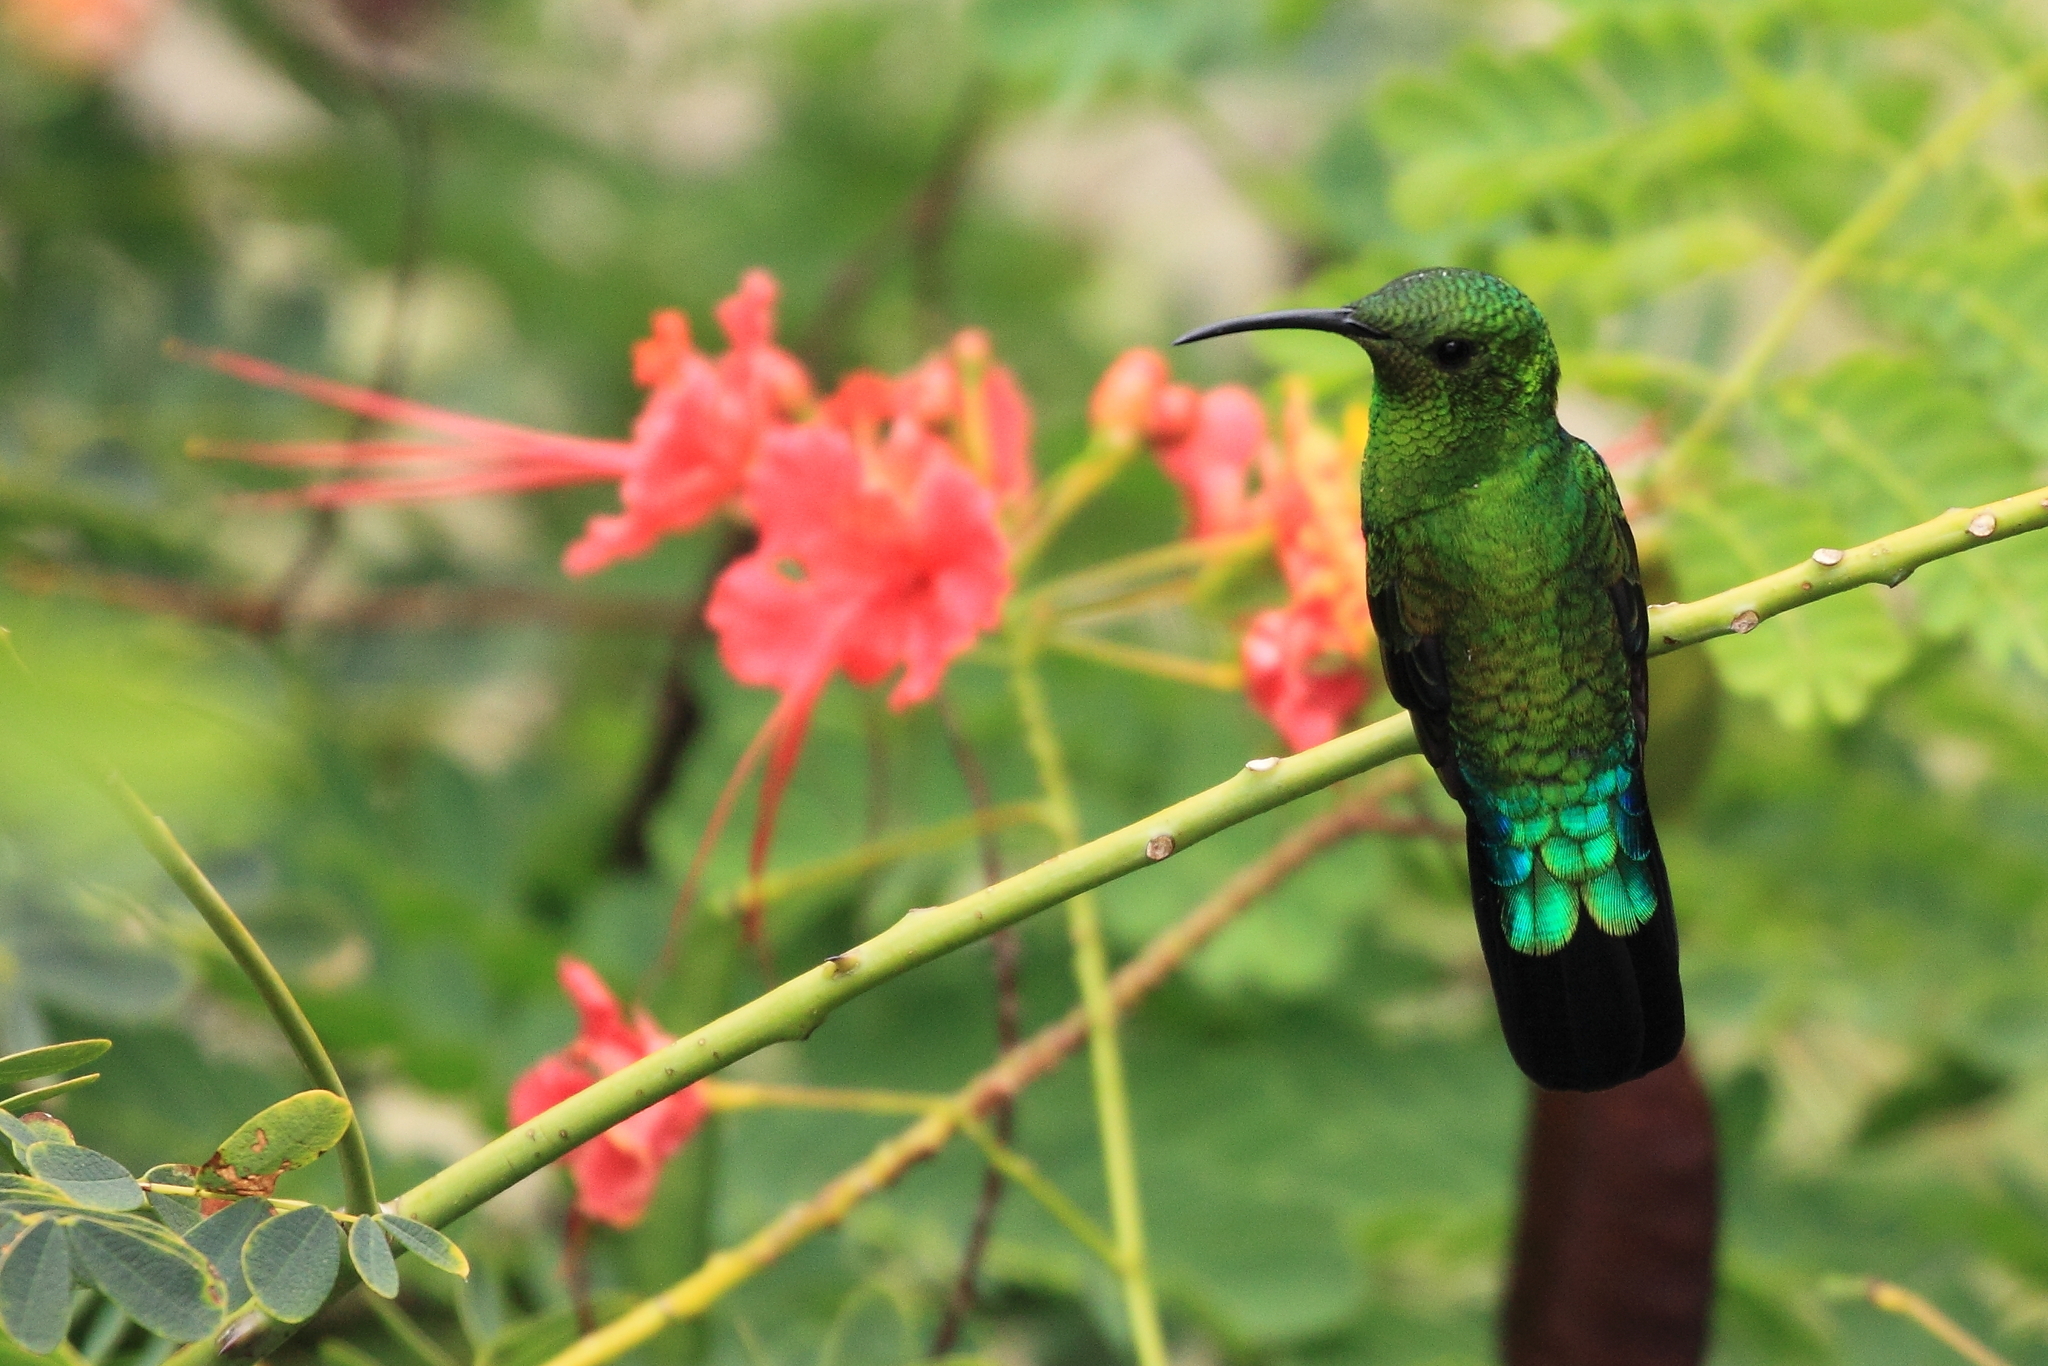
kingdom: Animalia
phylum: Chordata
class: Aves
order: Apodiformes
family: Trochilidae
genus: Eulampis
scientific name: Eulampis holosericeus
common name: Green-throated carib
